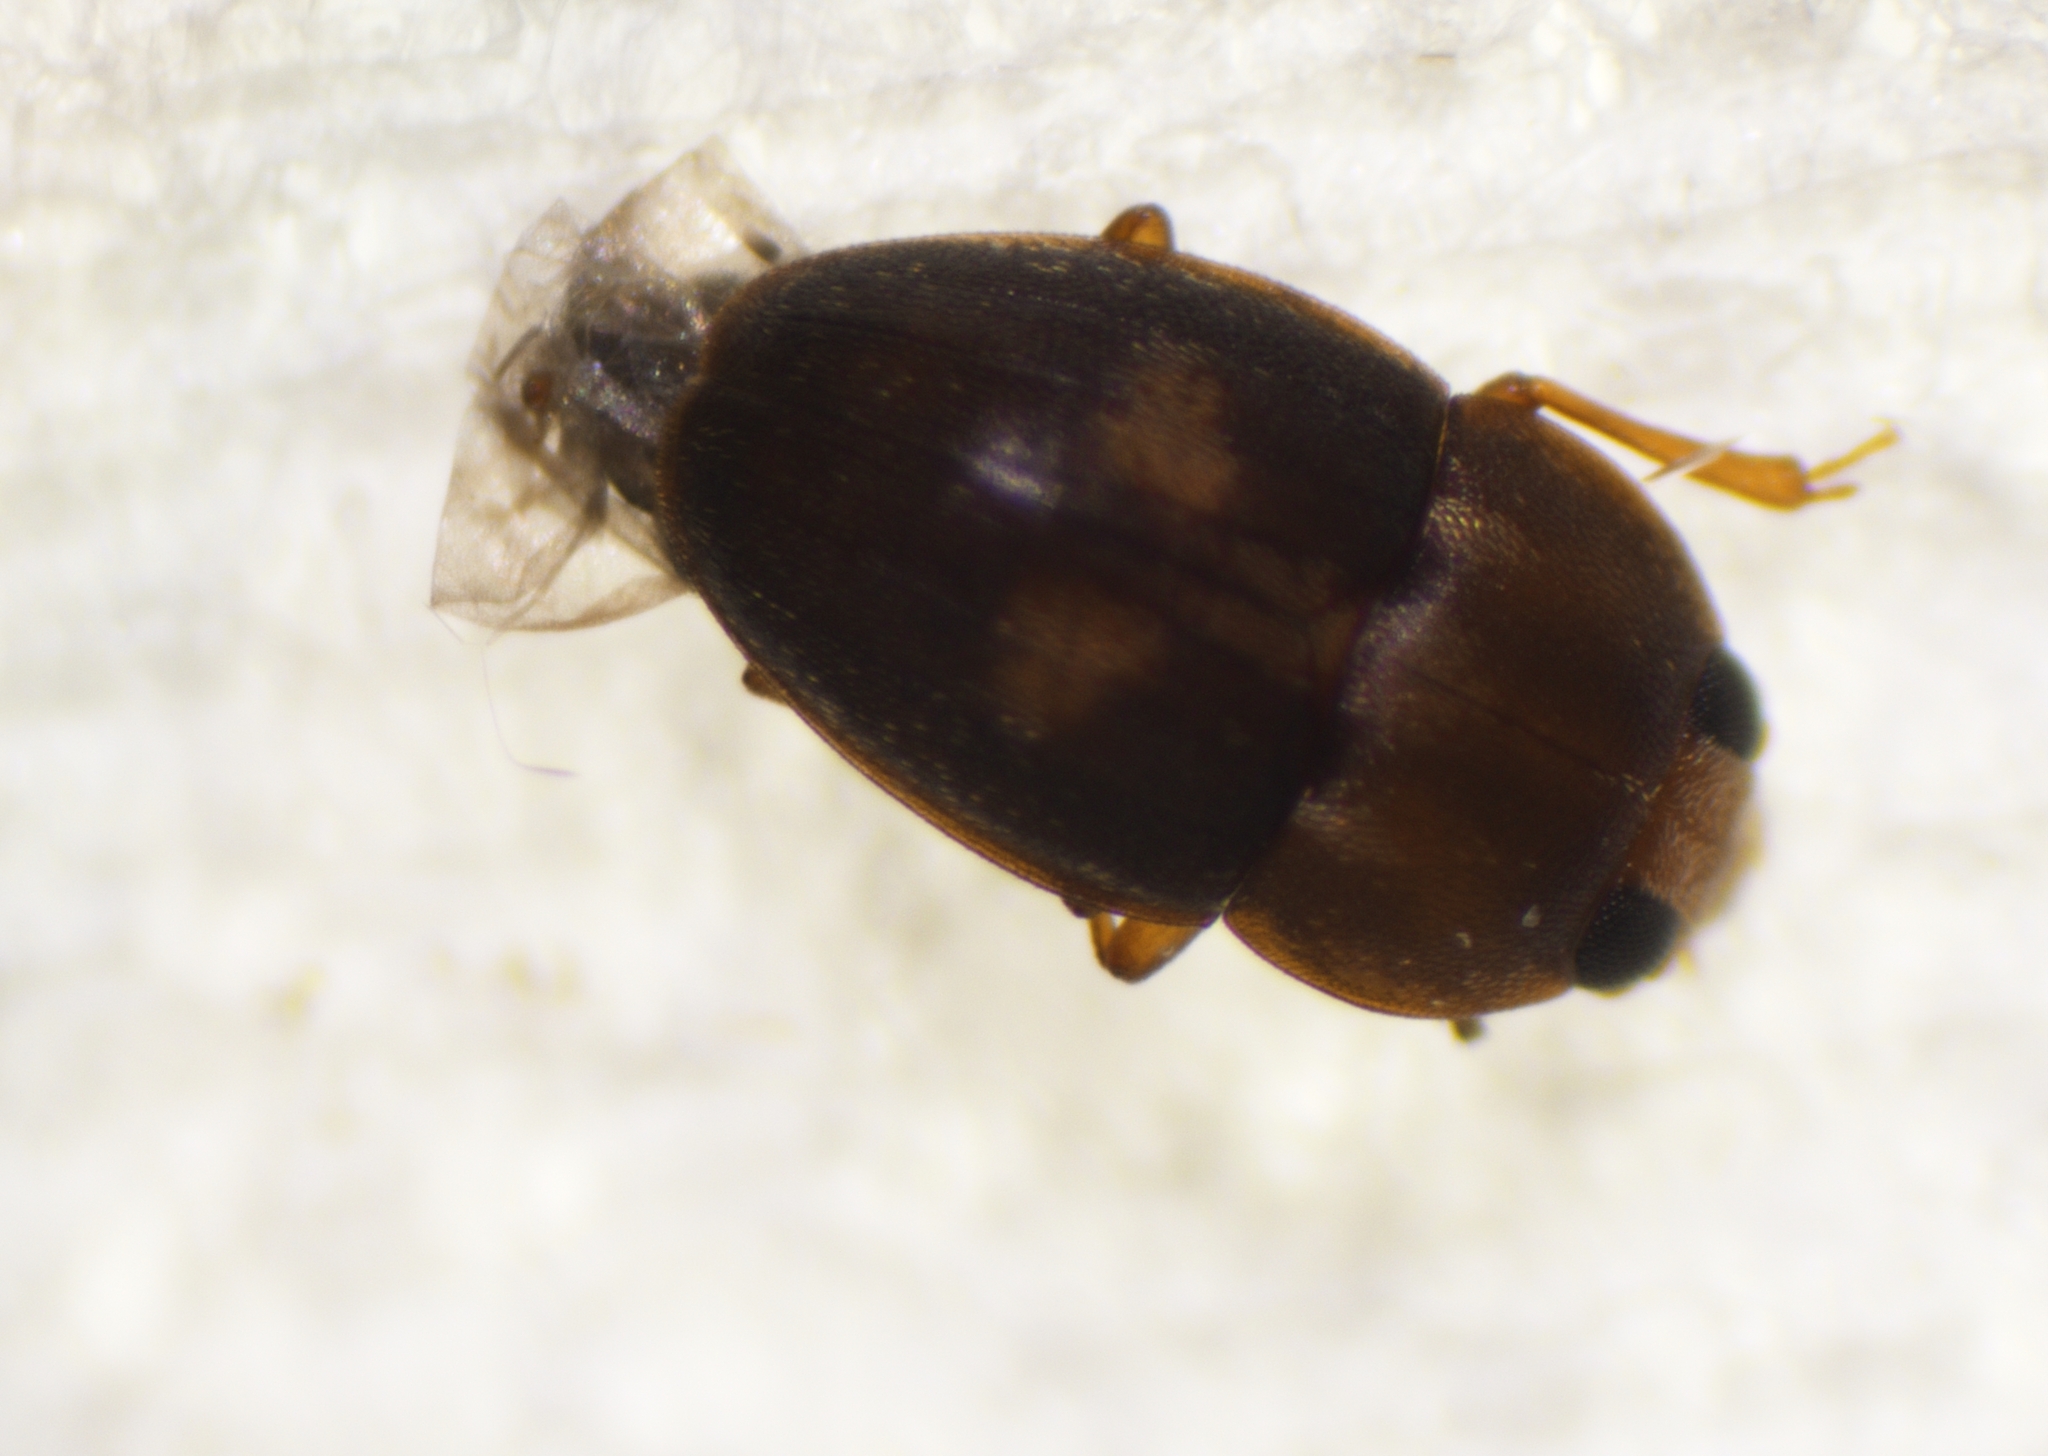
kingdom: Animalia
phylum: Arthropoda
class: Insecta
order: Coleoptera
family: Laemophloeidae
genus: Propalticus
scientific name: Propalticus oculatus
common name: Beetle
